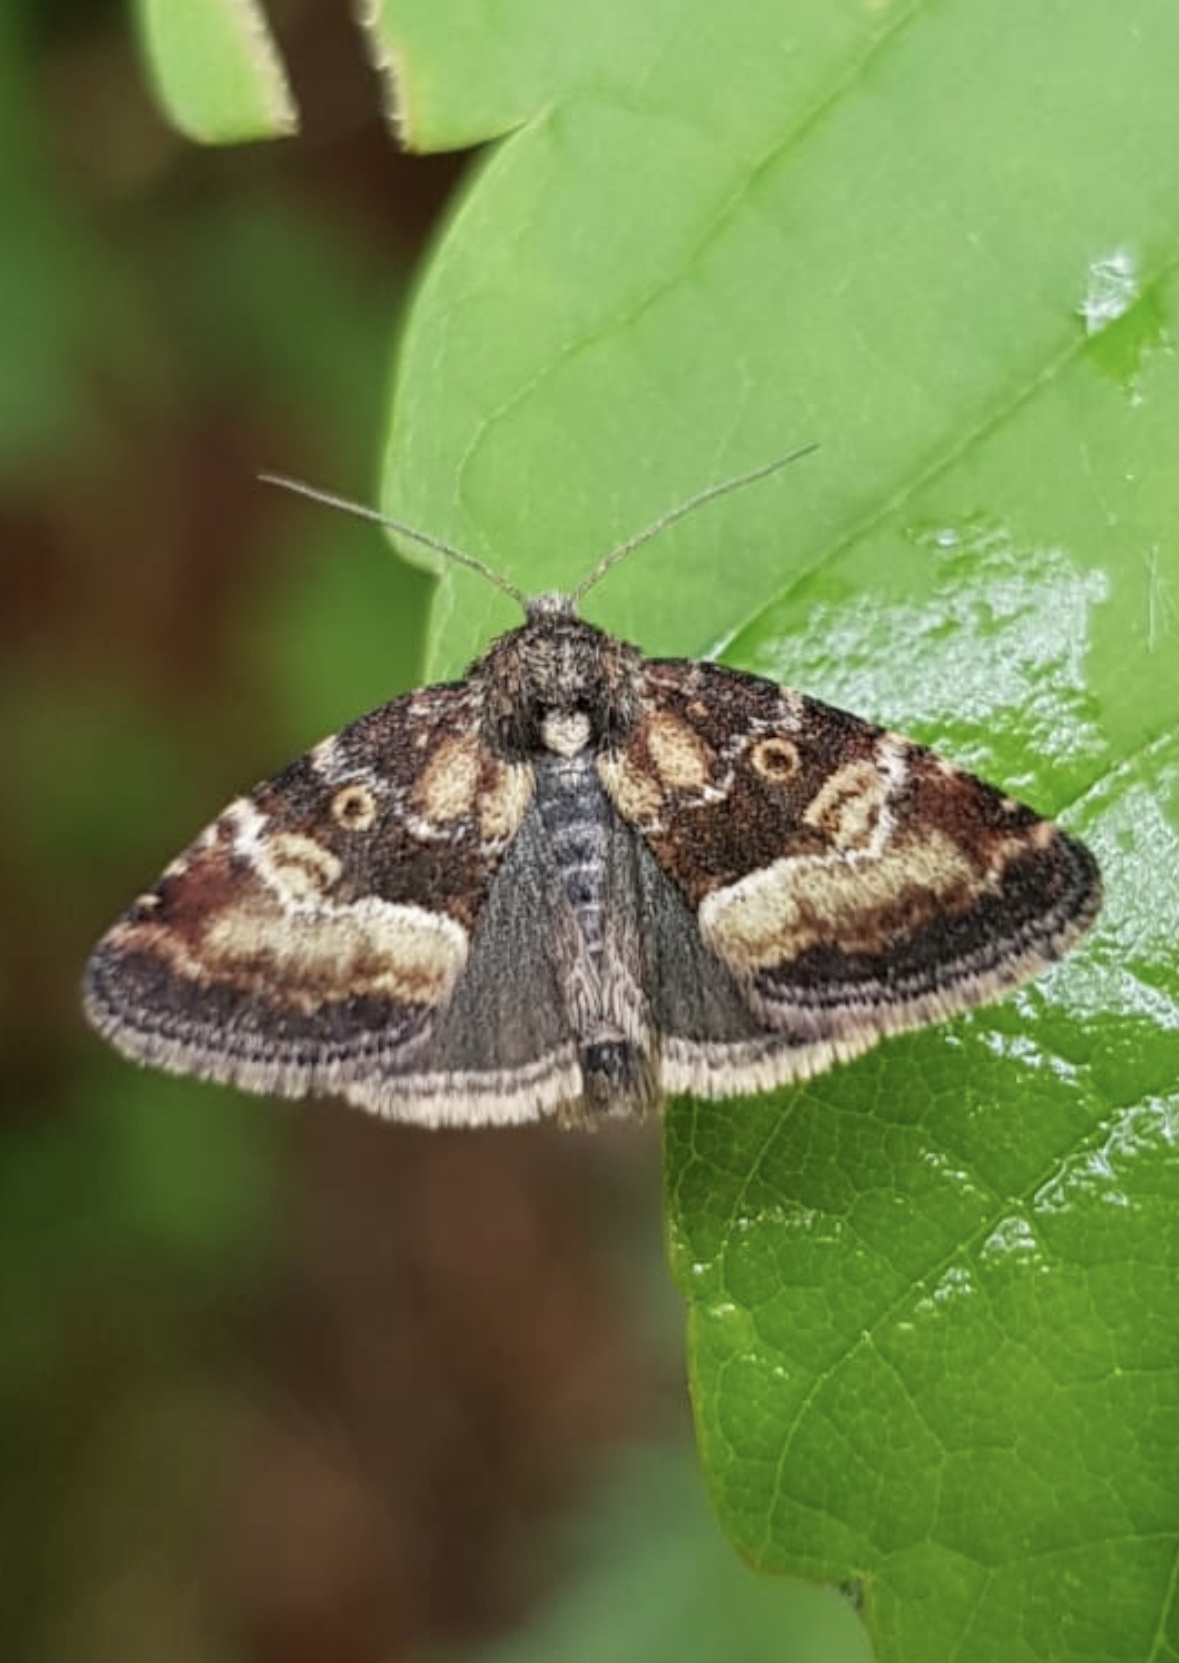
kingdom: Animalia
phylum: Arthropoda
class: Insecta
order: Lepidoptera
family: Noctuidae
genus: Photedes
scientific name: Photedes captiuncula
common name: Least minor
